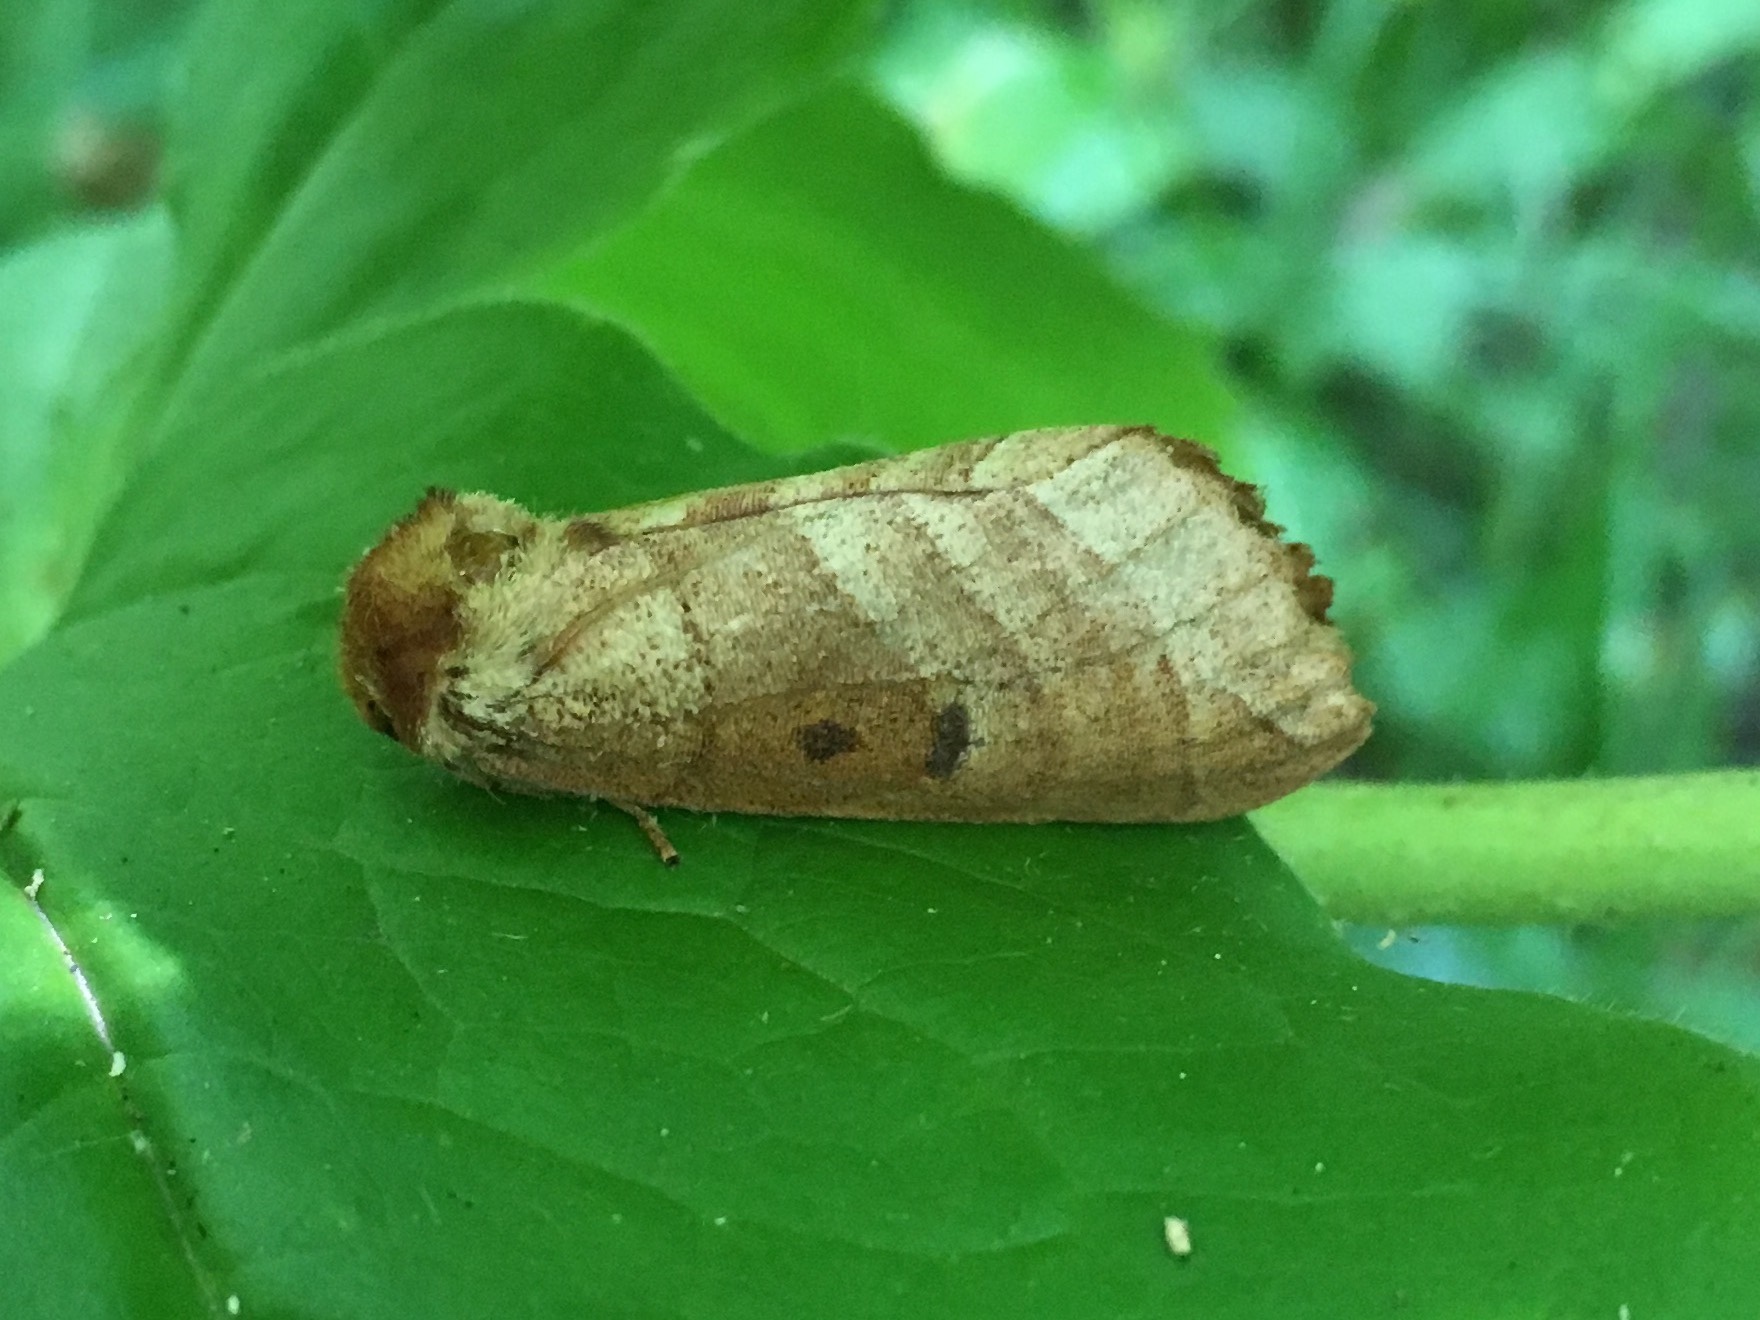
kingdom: Animalia
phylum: Arthropoda
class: Insecta
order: Lepidoptera
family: Notodontidae
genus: Datana
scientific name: Datana integerrima
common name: Walnut caterpillar
